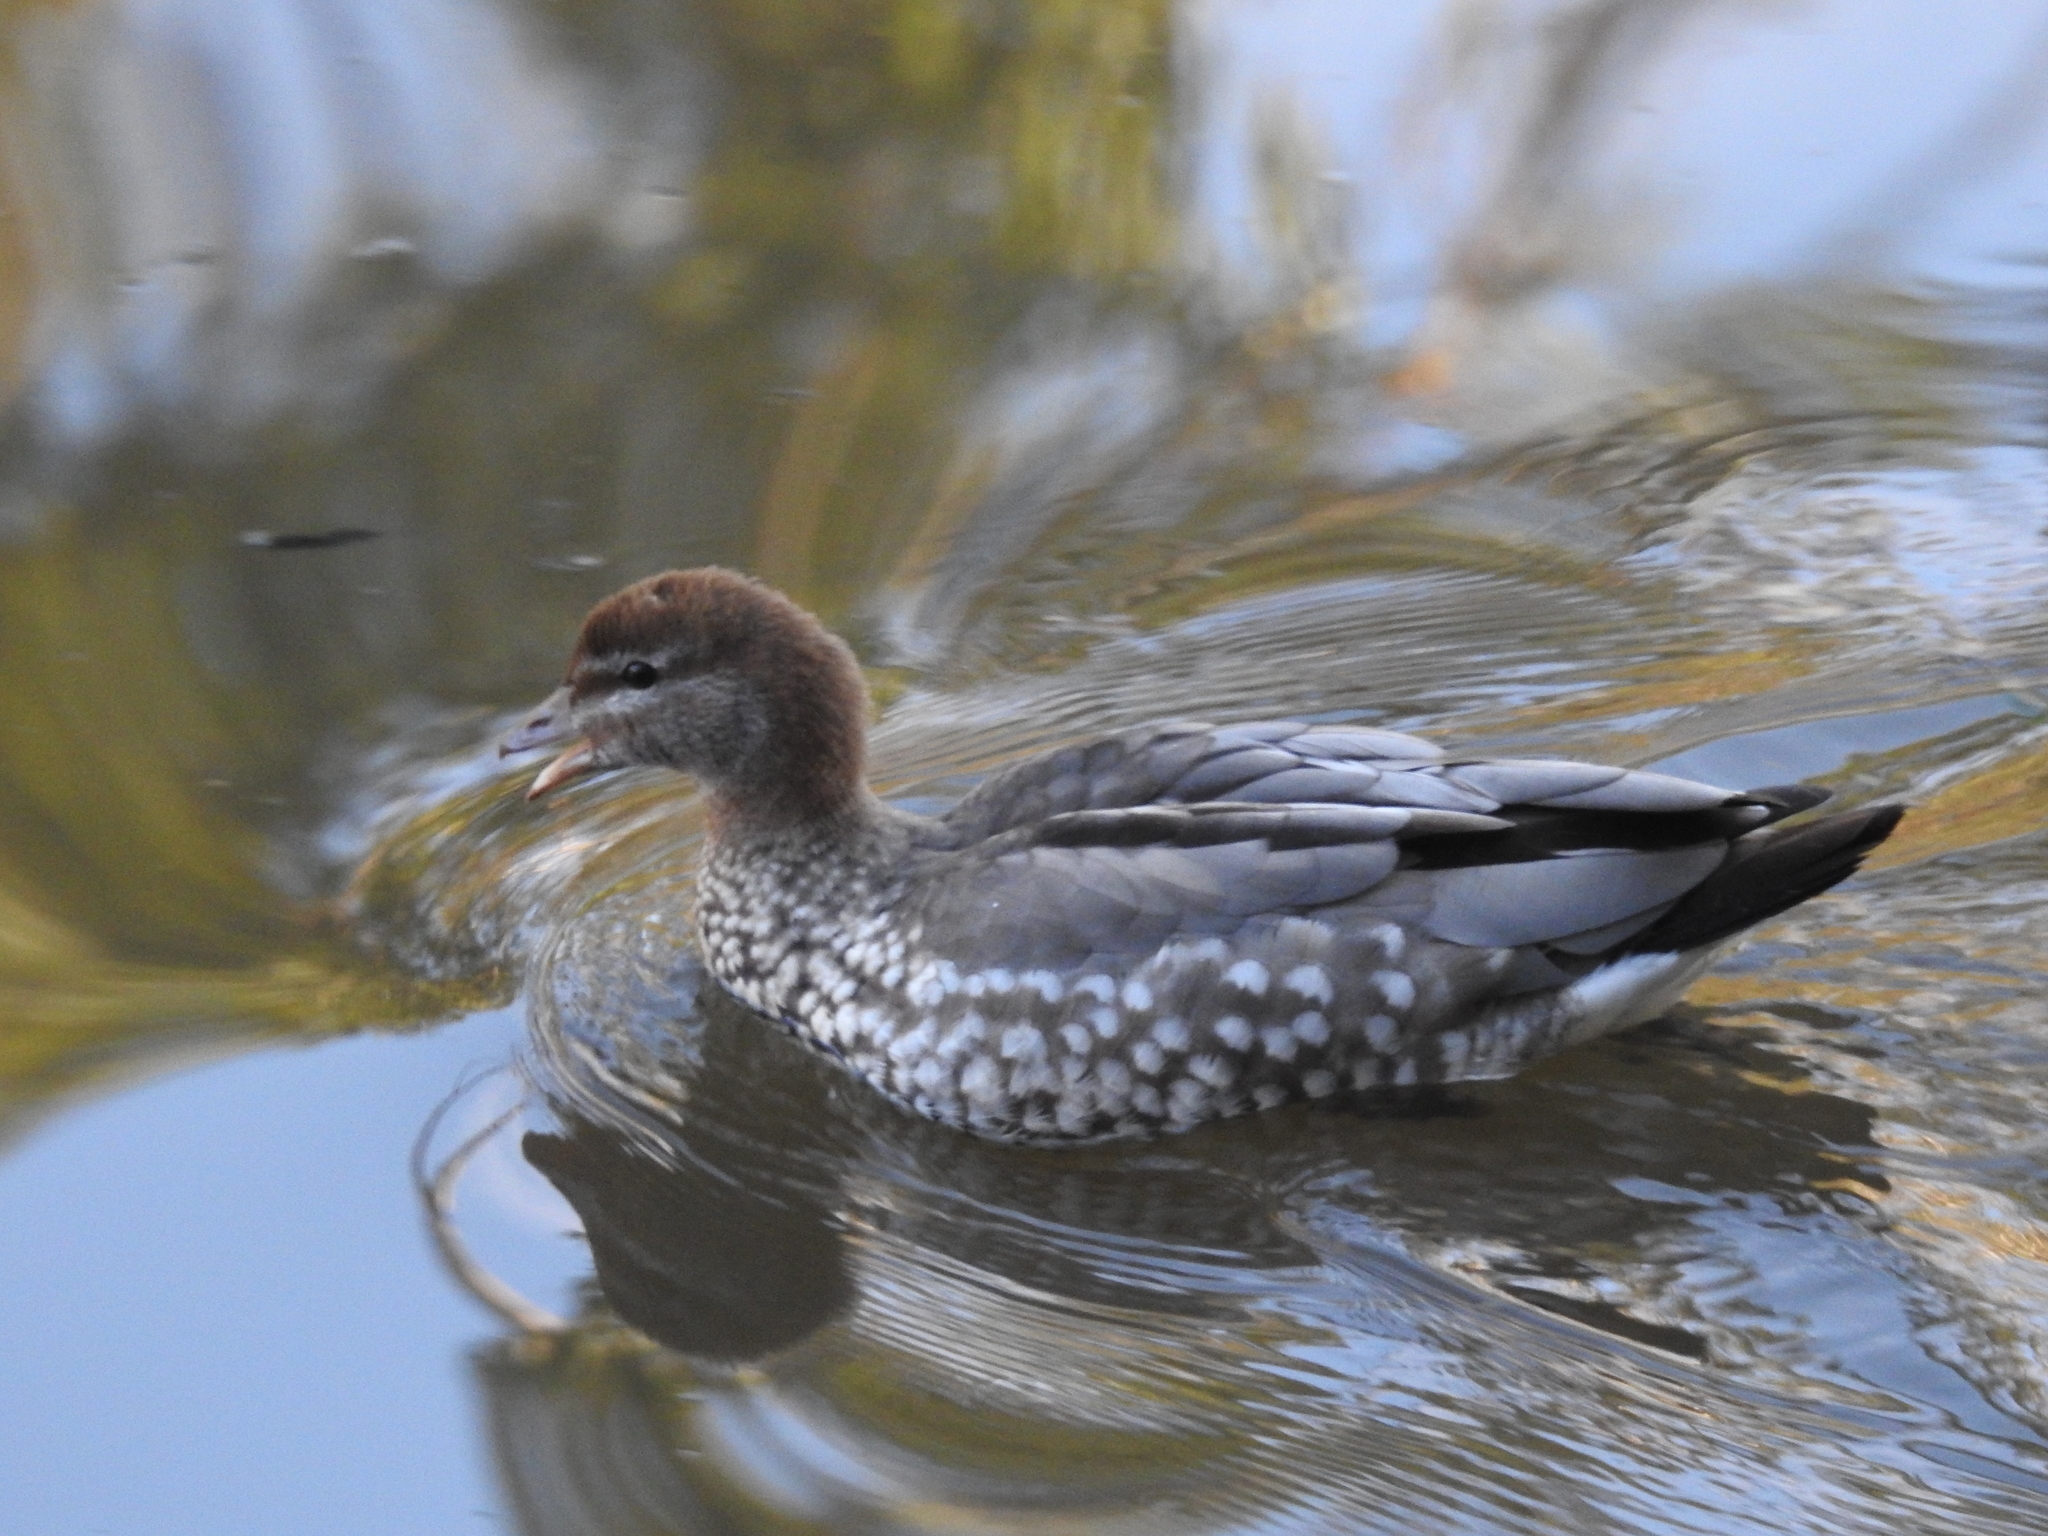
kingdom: Animalia
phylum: Chordata
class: Aves
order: Anseriformes
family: Anatidae
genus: Chenonetta
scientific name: Chenonetta jubata
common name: Maned duck
